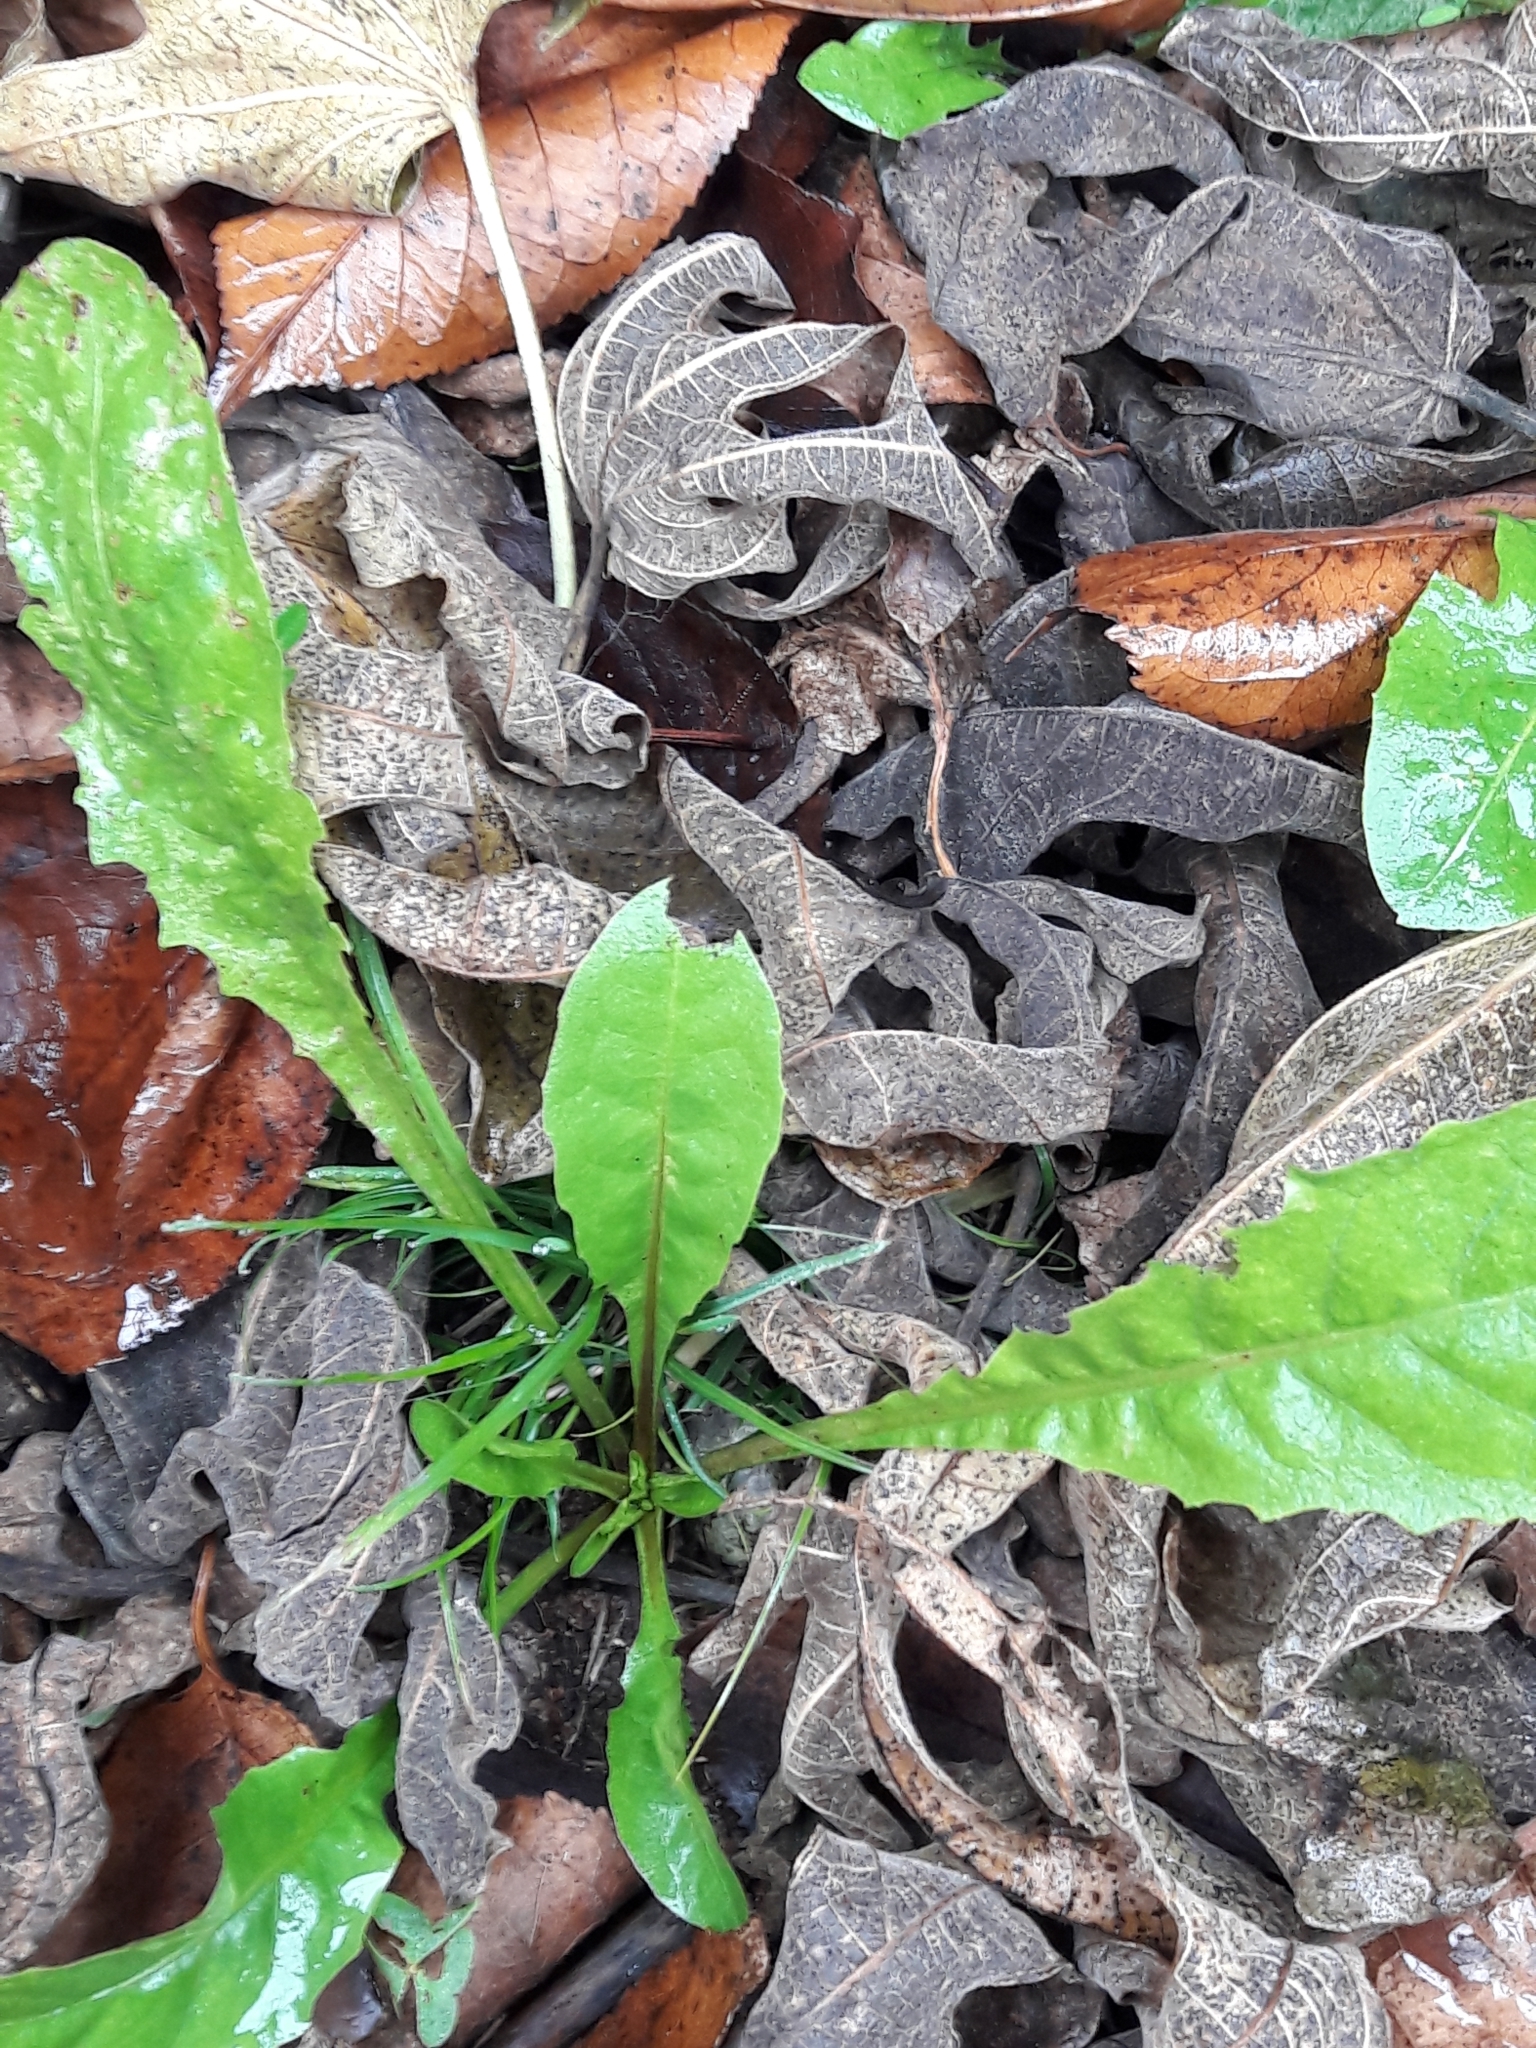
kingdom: Plantae
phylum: Tracheophyta
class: Magnoliopsida
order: Asterales
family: Asteraceae
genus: Taraxacum
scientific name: Taraxacum officinale
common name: Common dandelion
